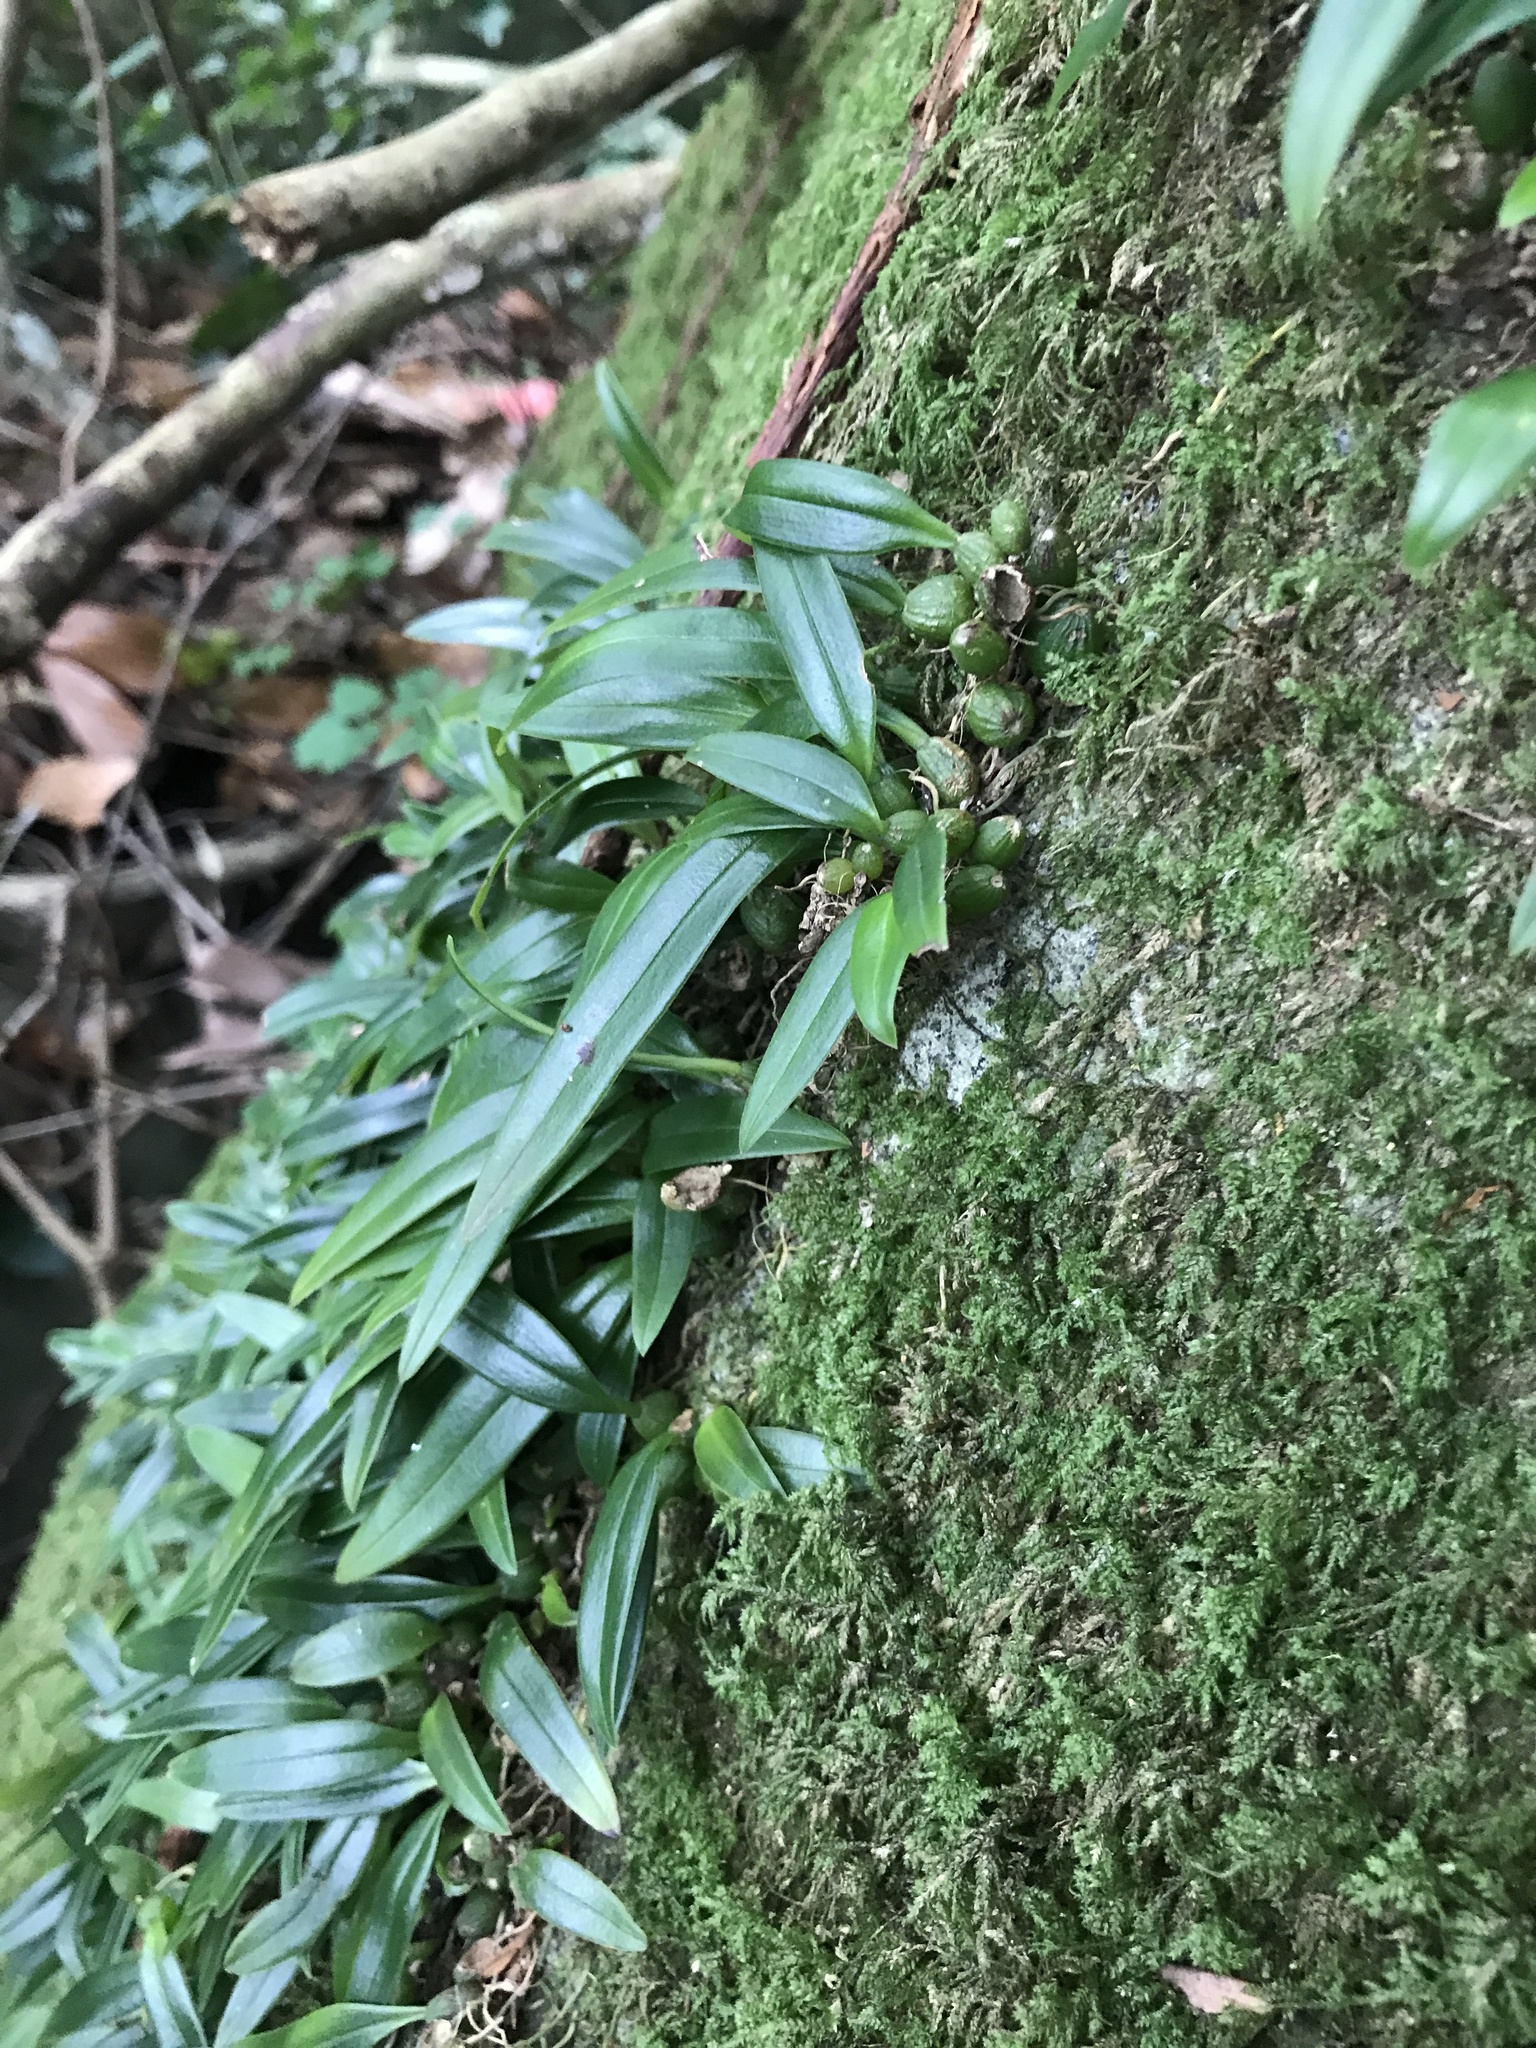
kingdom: Plantae
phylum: Tracheophyta
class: Liliopsida
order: Asparagales
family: Orchidaceae
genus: Bulbophyllum
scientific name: Bulbophyllum japonicum
